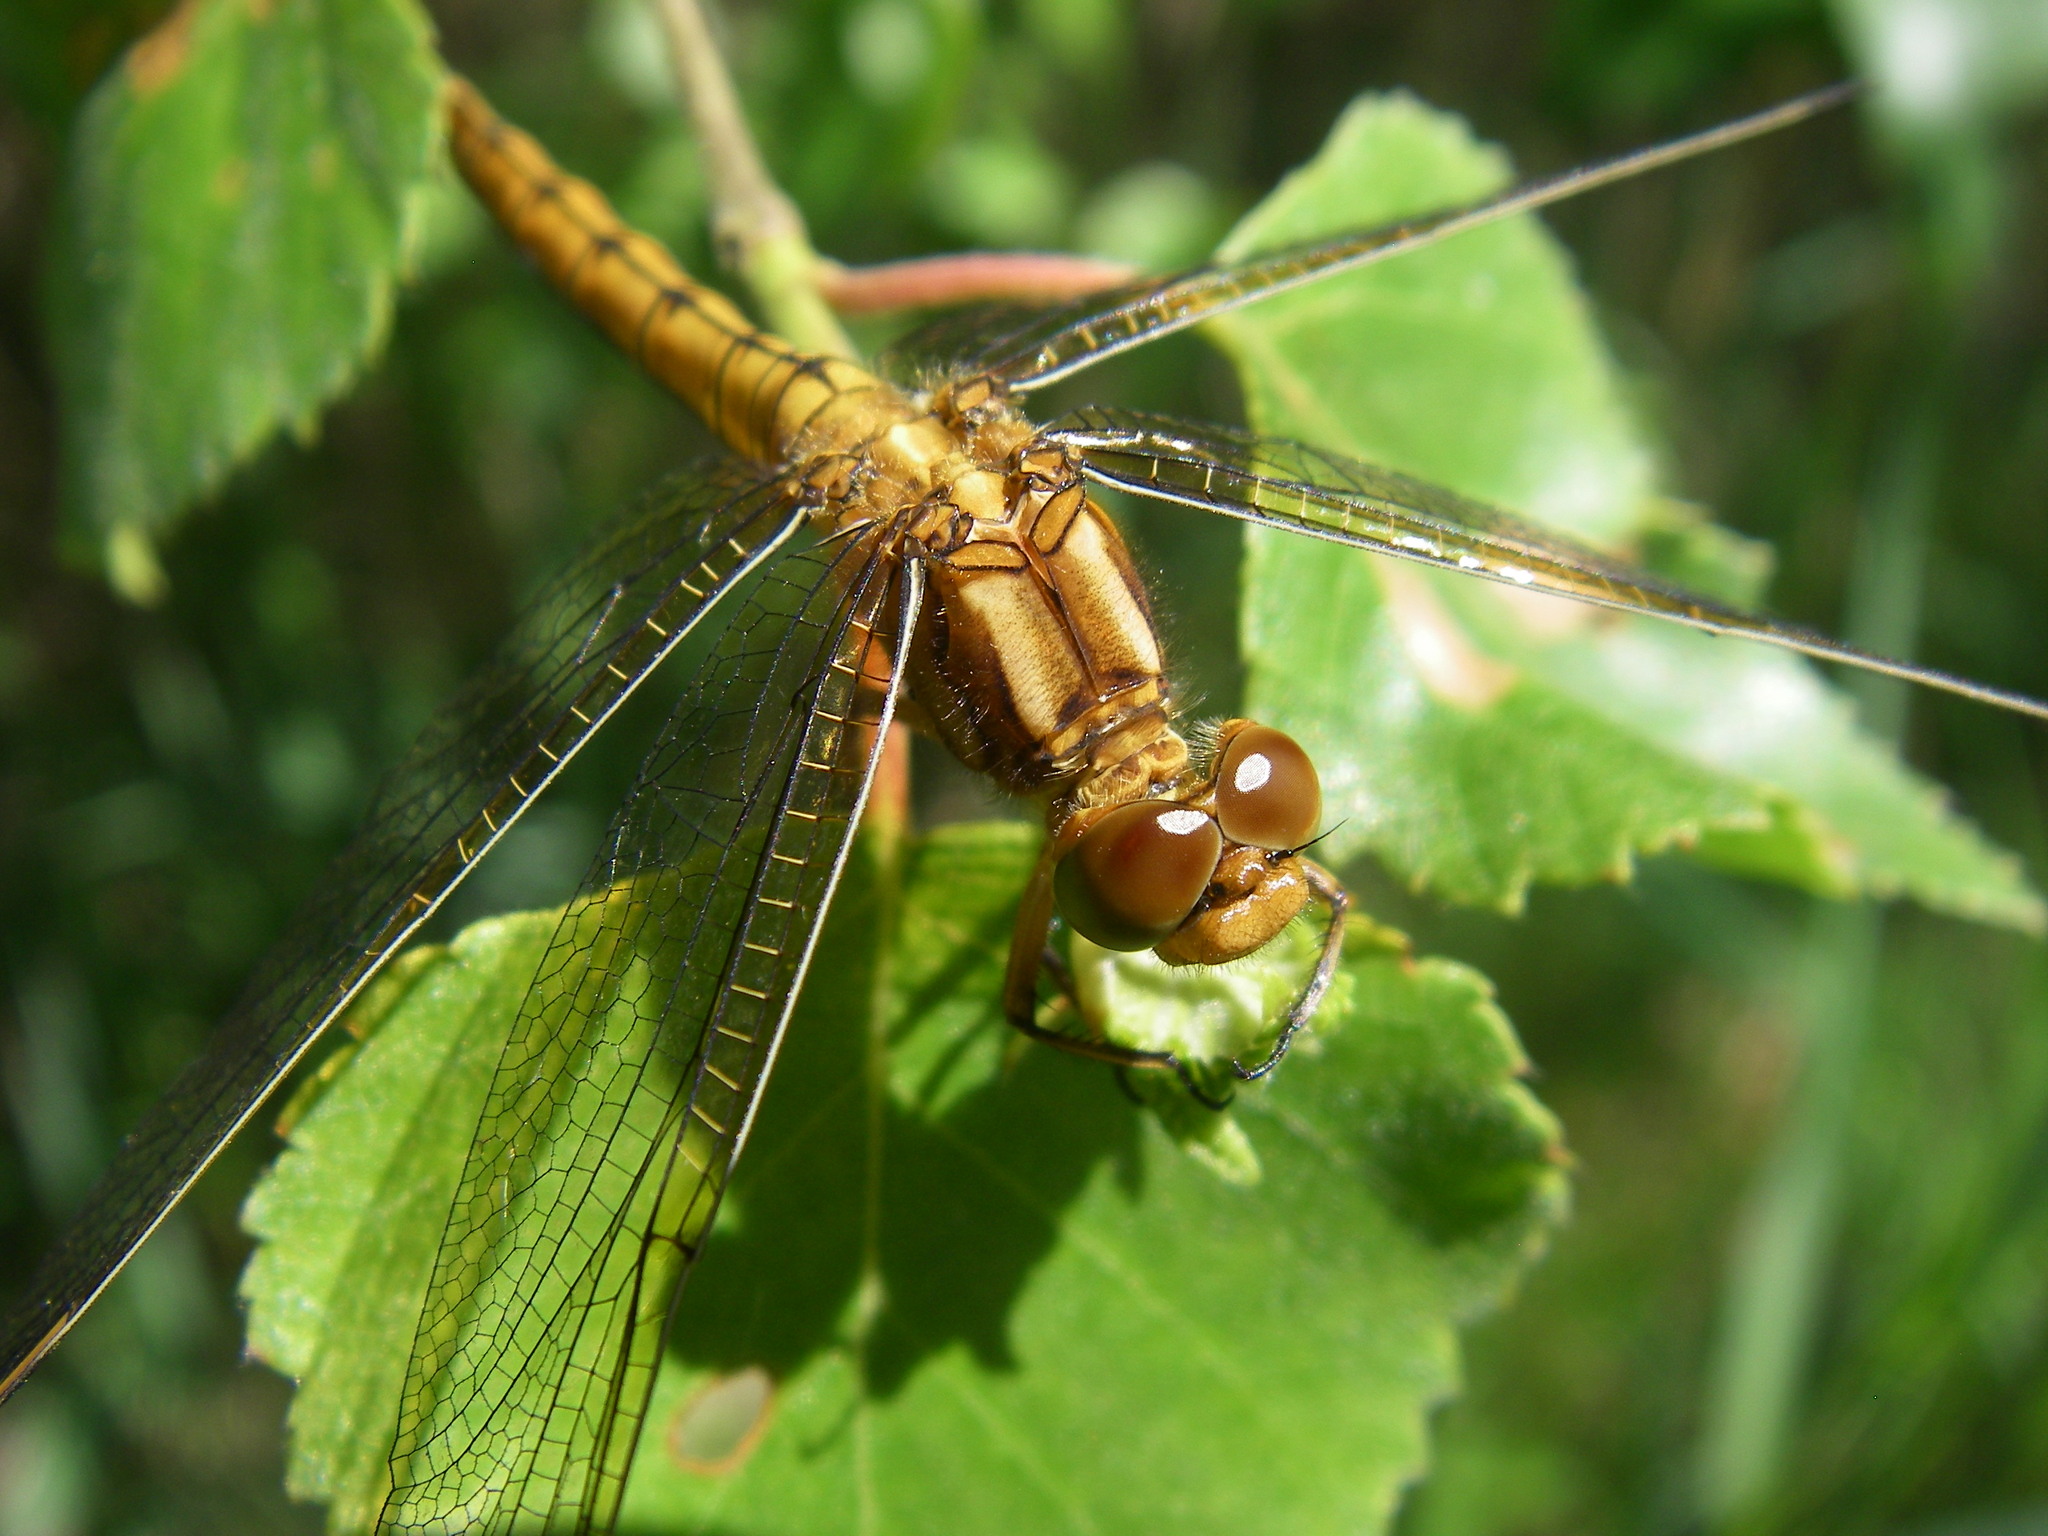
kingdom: Animalia
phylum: Arthropoda
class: Insecta
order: Odonata
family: Libellulidae
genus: Orthetrum
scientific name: Orthetrum coerulescens
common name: Keeled skimmer
